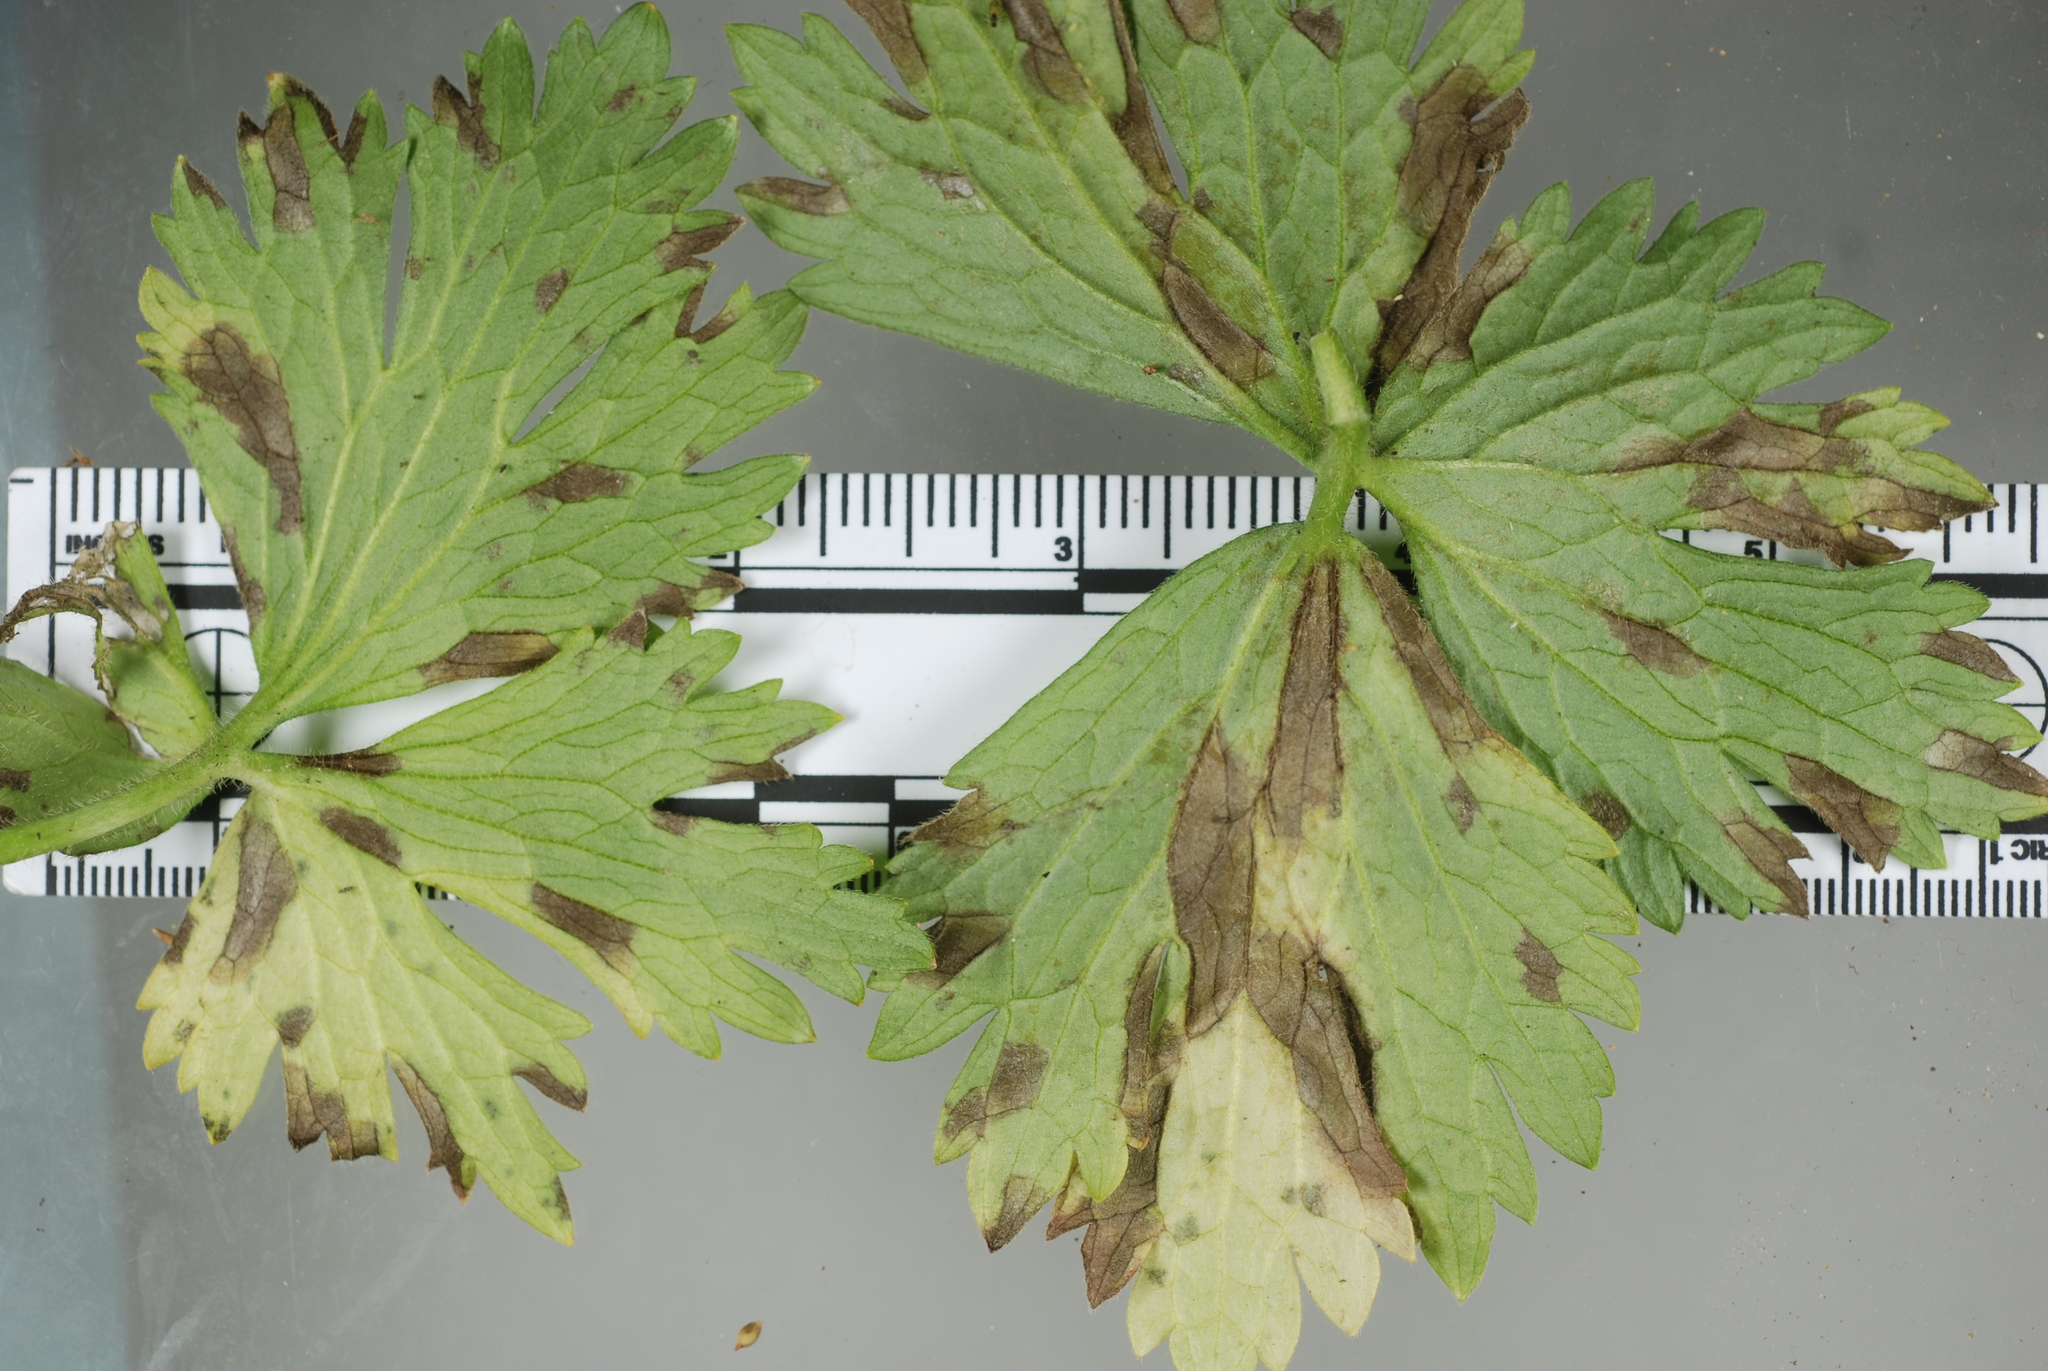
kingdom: Fungi
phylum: Ascomycota
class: Dothideomycetes
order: Mycosphaerellales
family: Mycosphaerellaceae
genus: Ramularia
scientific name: Ramularia didyma
